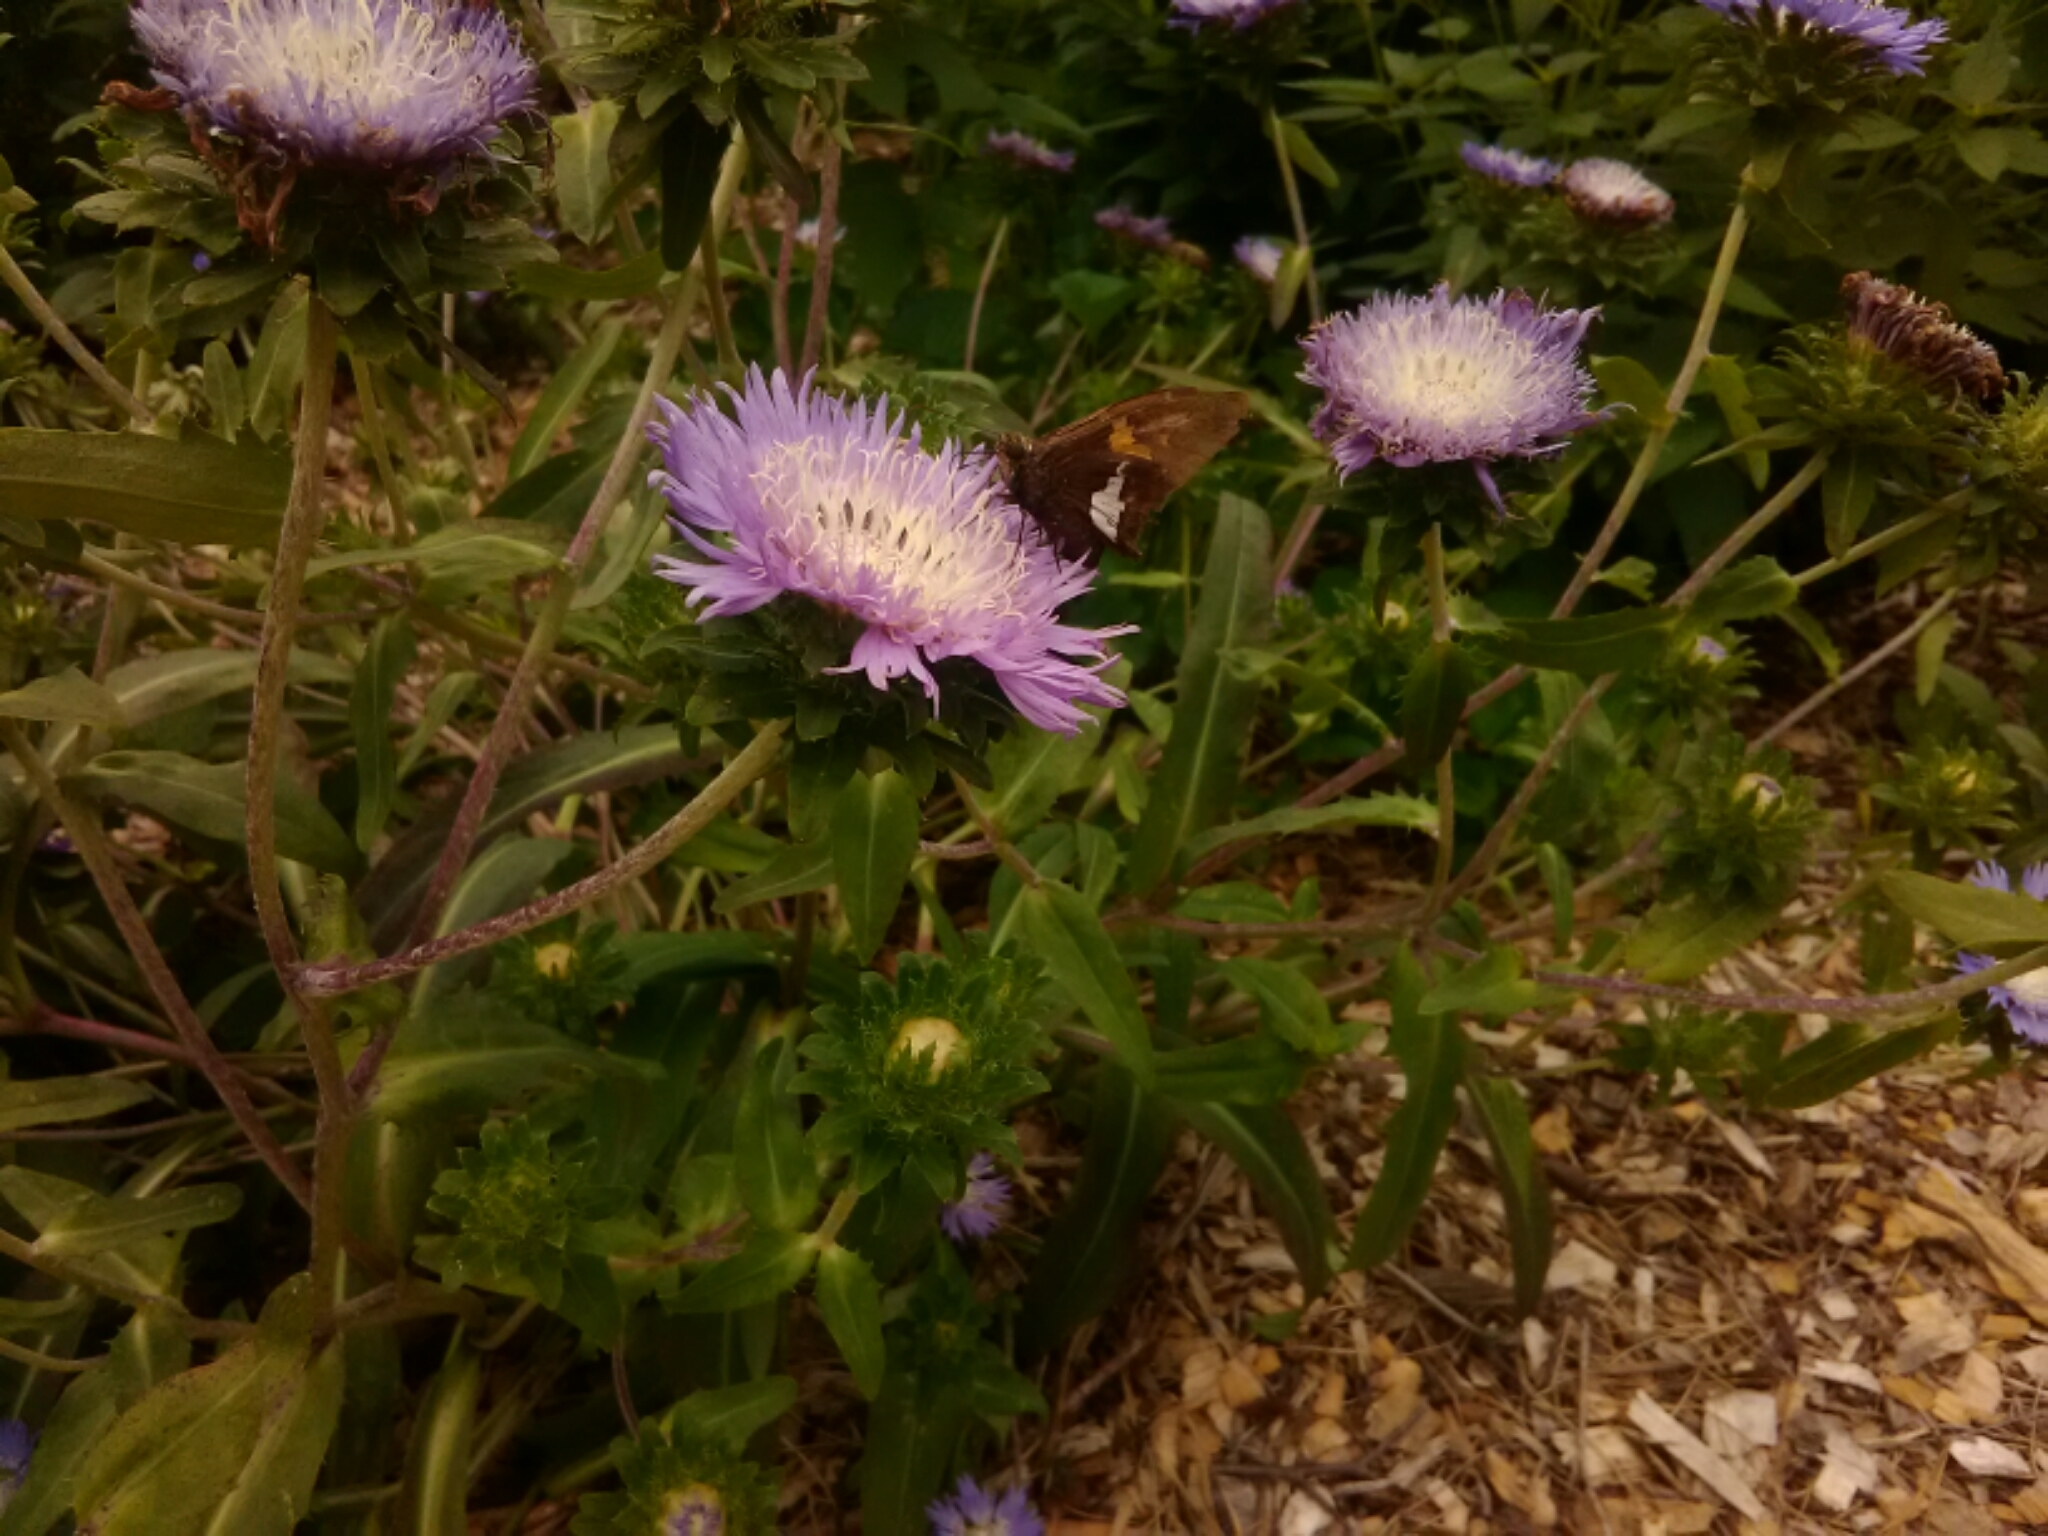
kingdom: Animalia
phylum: Arthropoda
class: Insecta
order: Lepidoptera
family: Hesperiidae
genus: Epargyreus
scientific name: Epargyreus clarus
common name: Silver-spotted skipper
